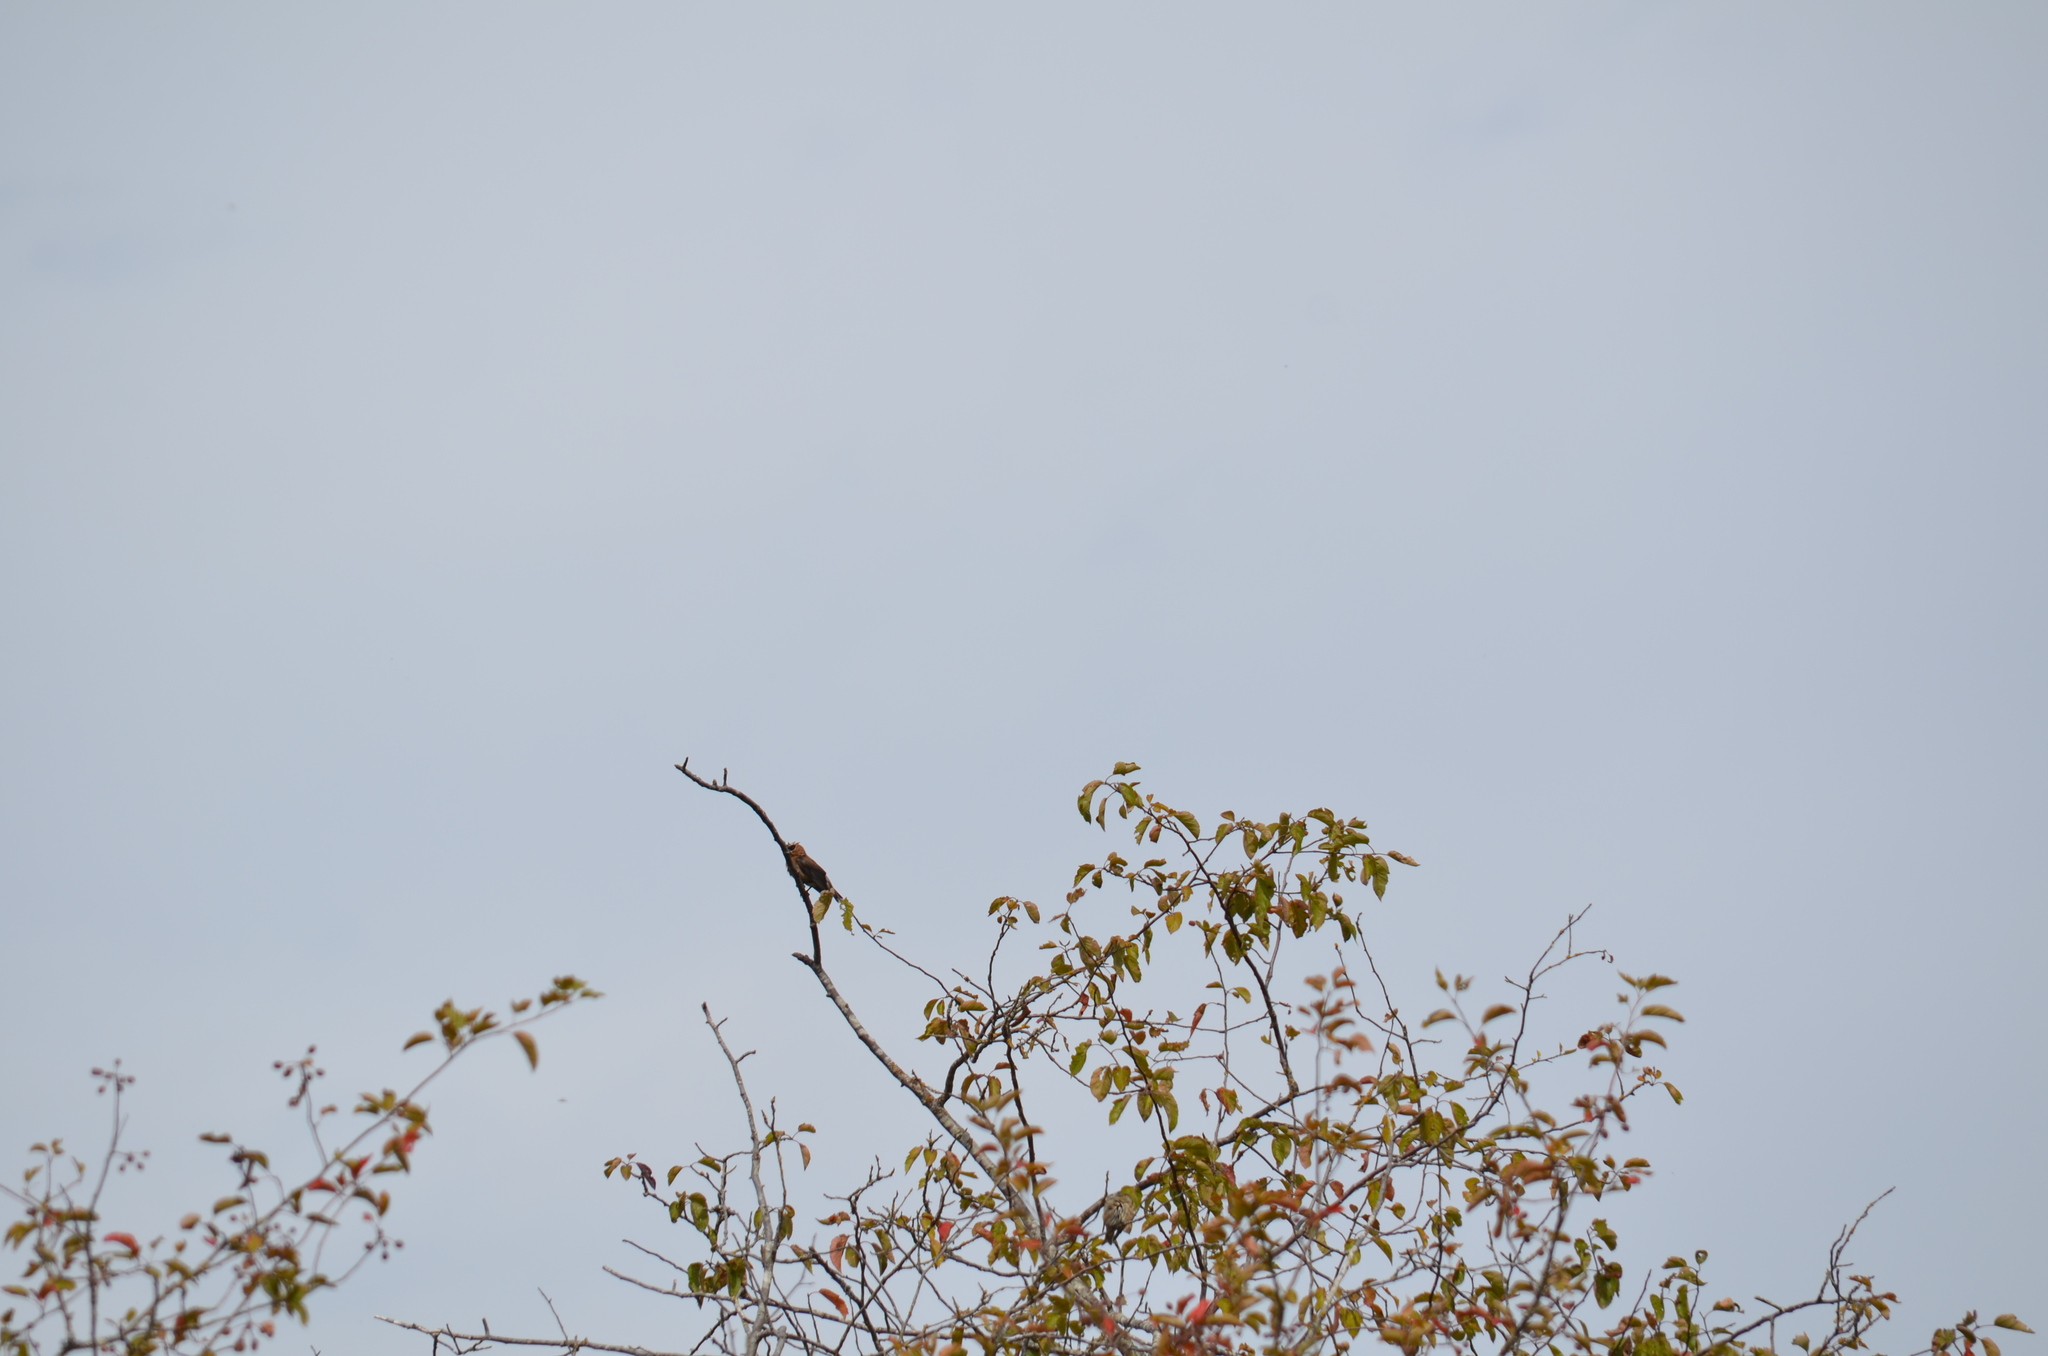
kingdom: Animalia
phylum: Chordata
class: Aves
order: Passeriformes
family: Bombycillidae
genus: Bombycilla
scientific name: Bombycilla cedrorum
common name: Cedar waxwing
